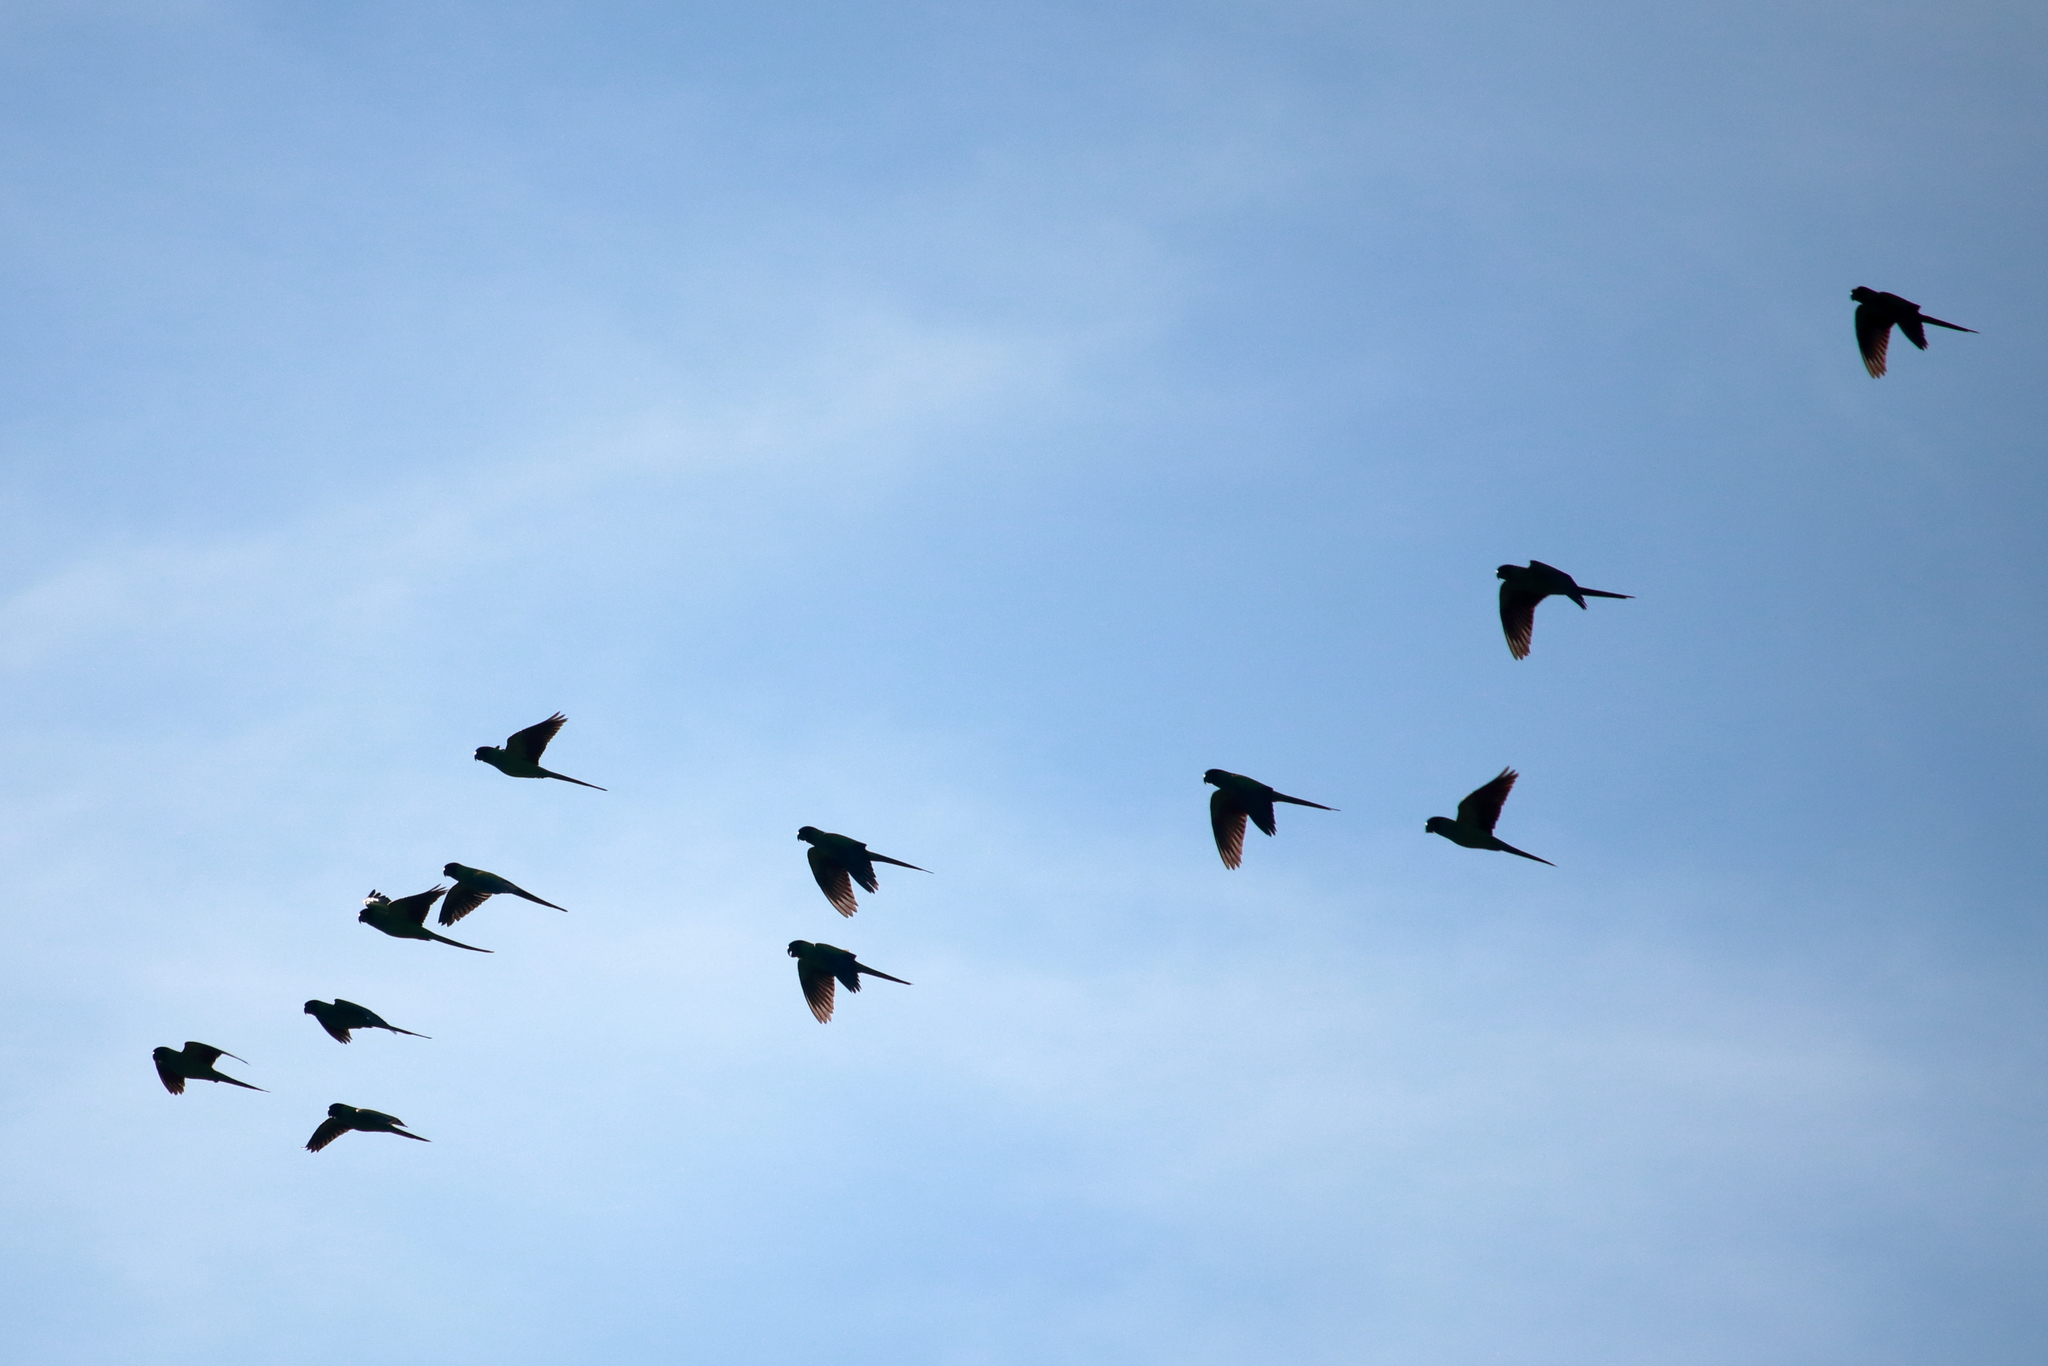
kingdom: Animalia
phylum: Chordata
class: Aves
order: Psittaciformes
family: Psittacidae
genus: Nandayus
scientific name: Nandayus nenday
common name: Nanday parakeet
